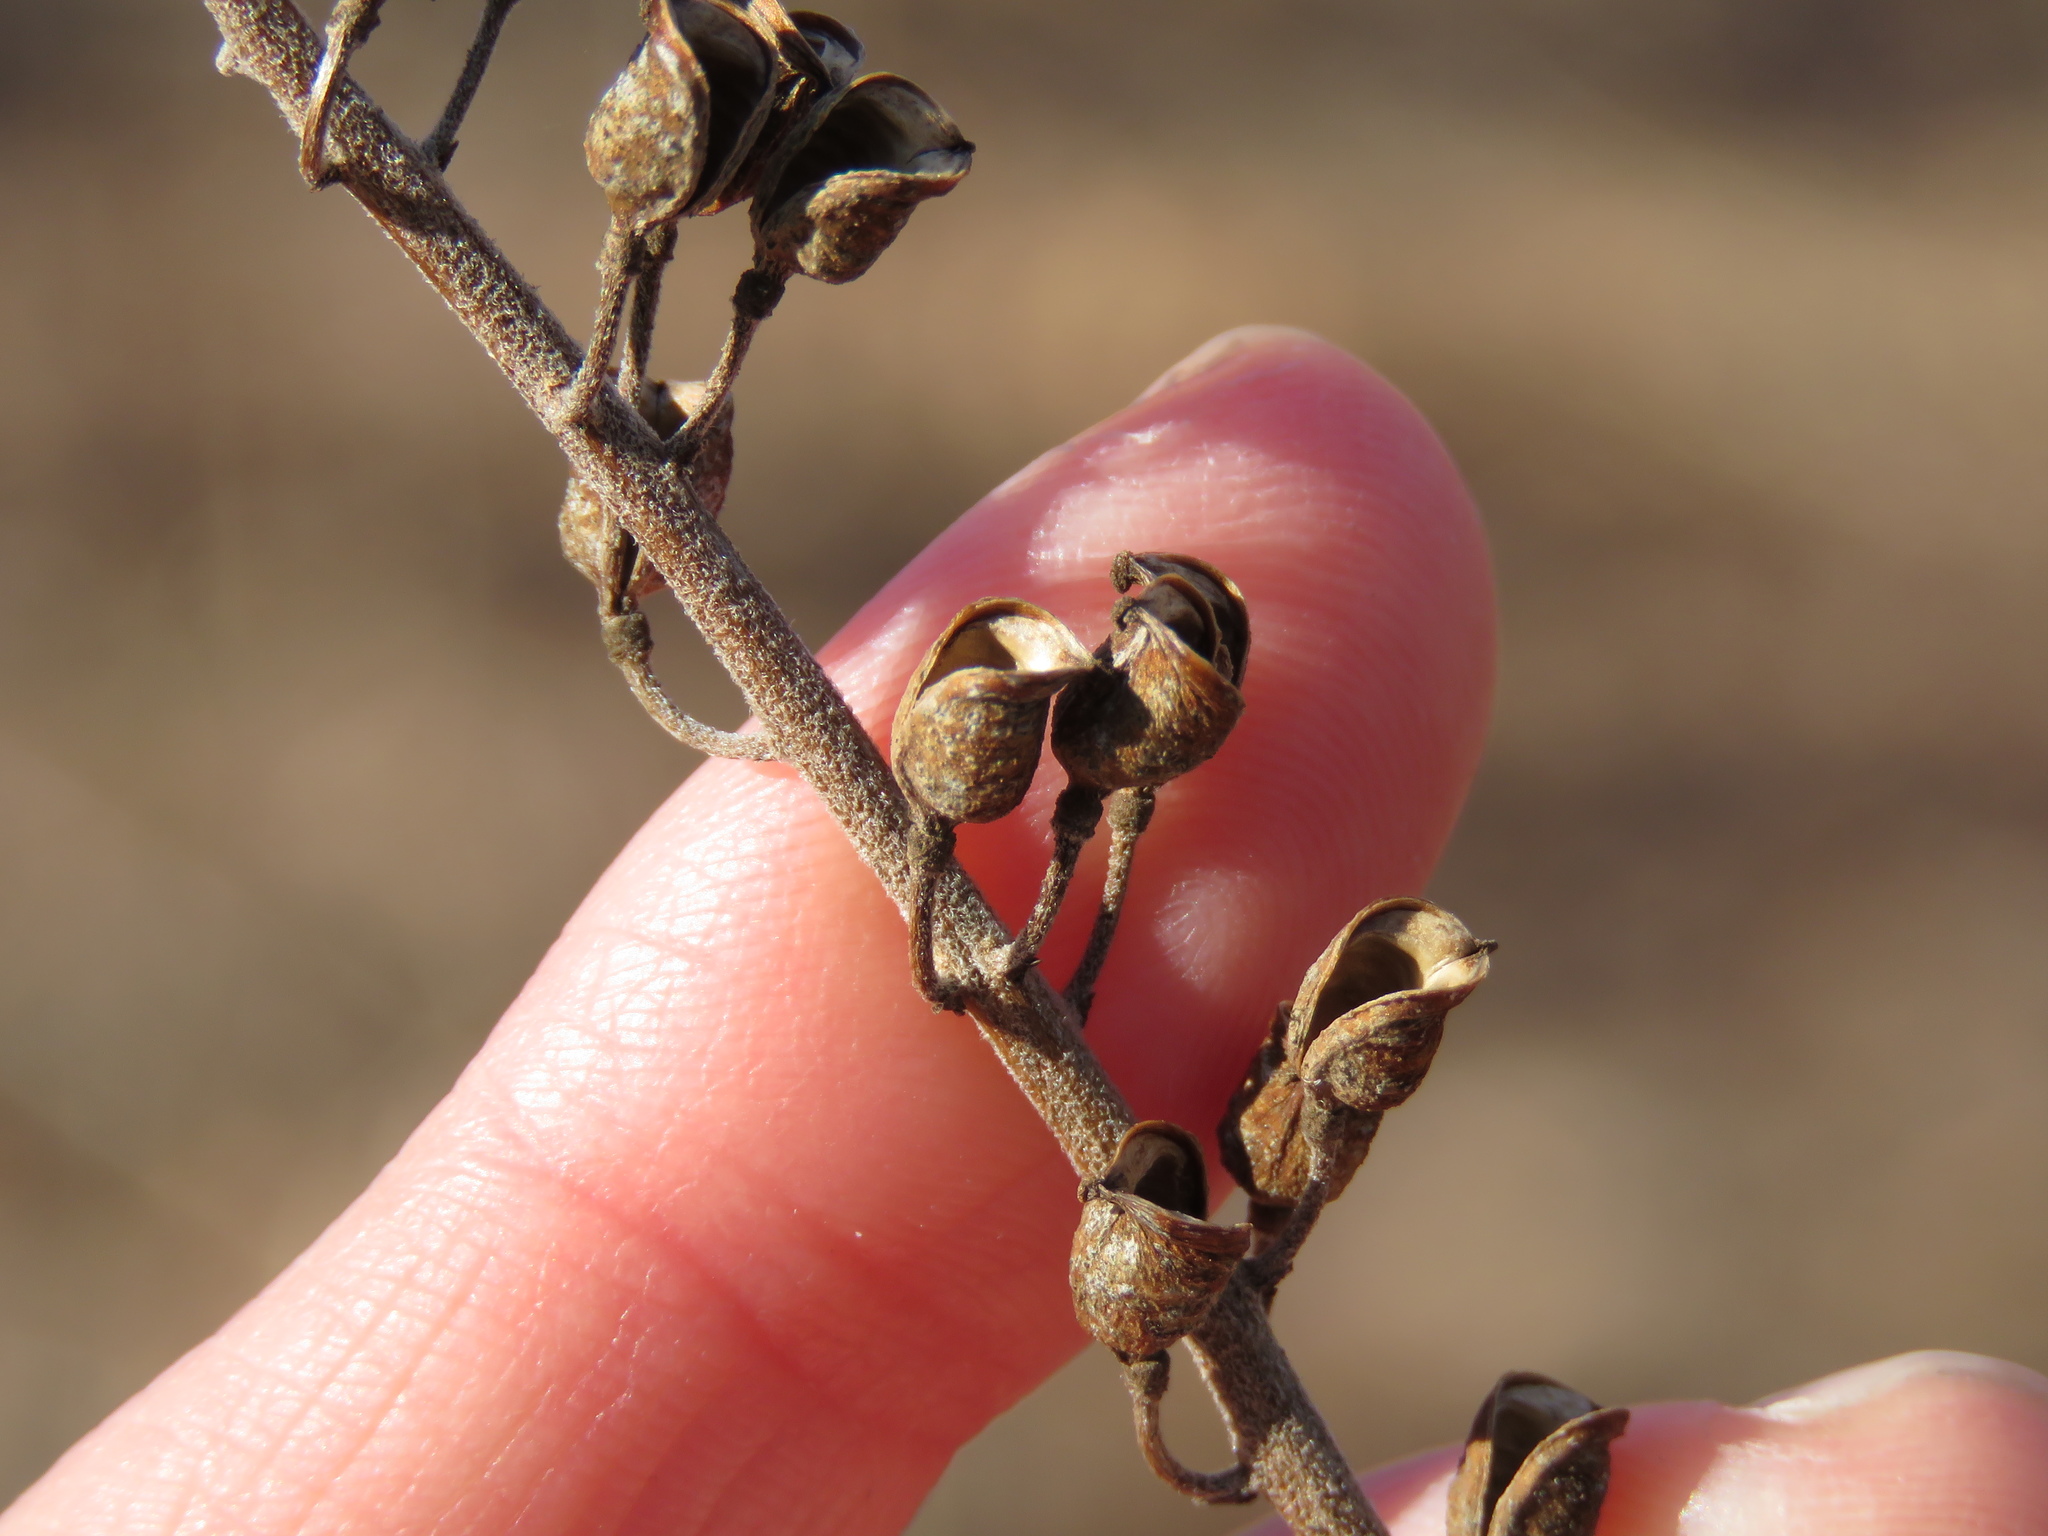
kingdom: Plantae
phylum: Tracheophyta
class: Magnoliopsida
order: Ranunculales
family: Ranunculaceae
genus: Actaea
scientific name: Actaea racemosa
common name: Black cohosh
